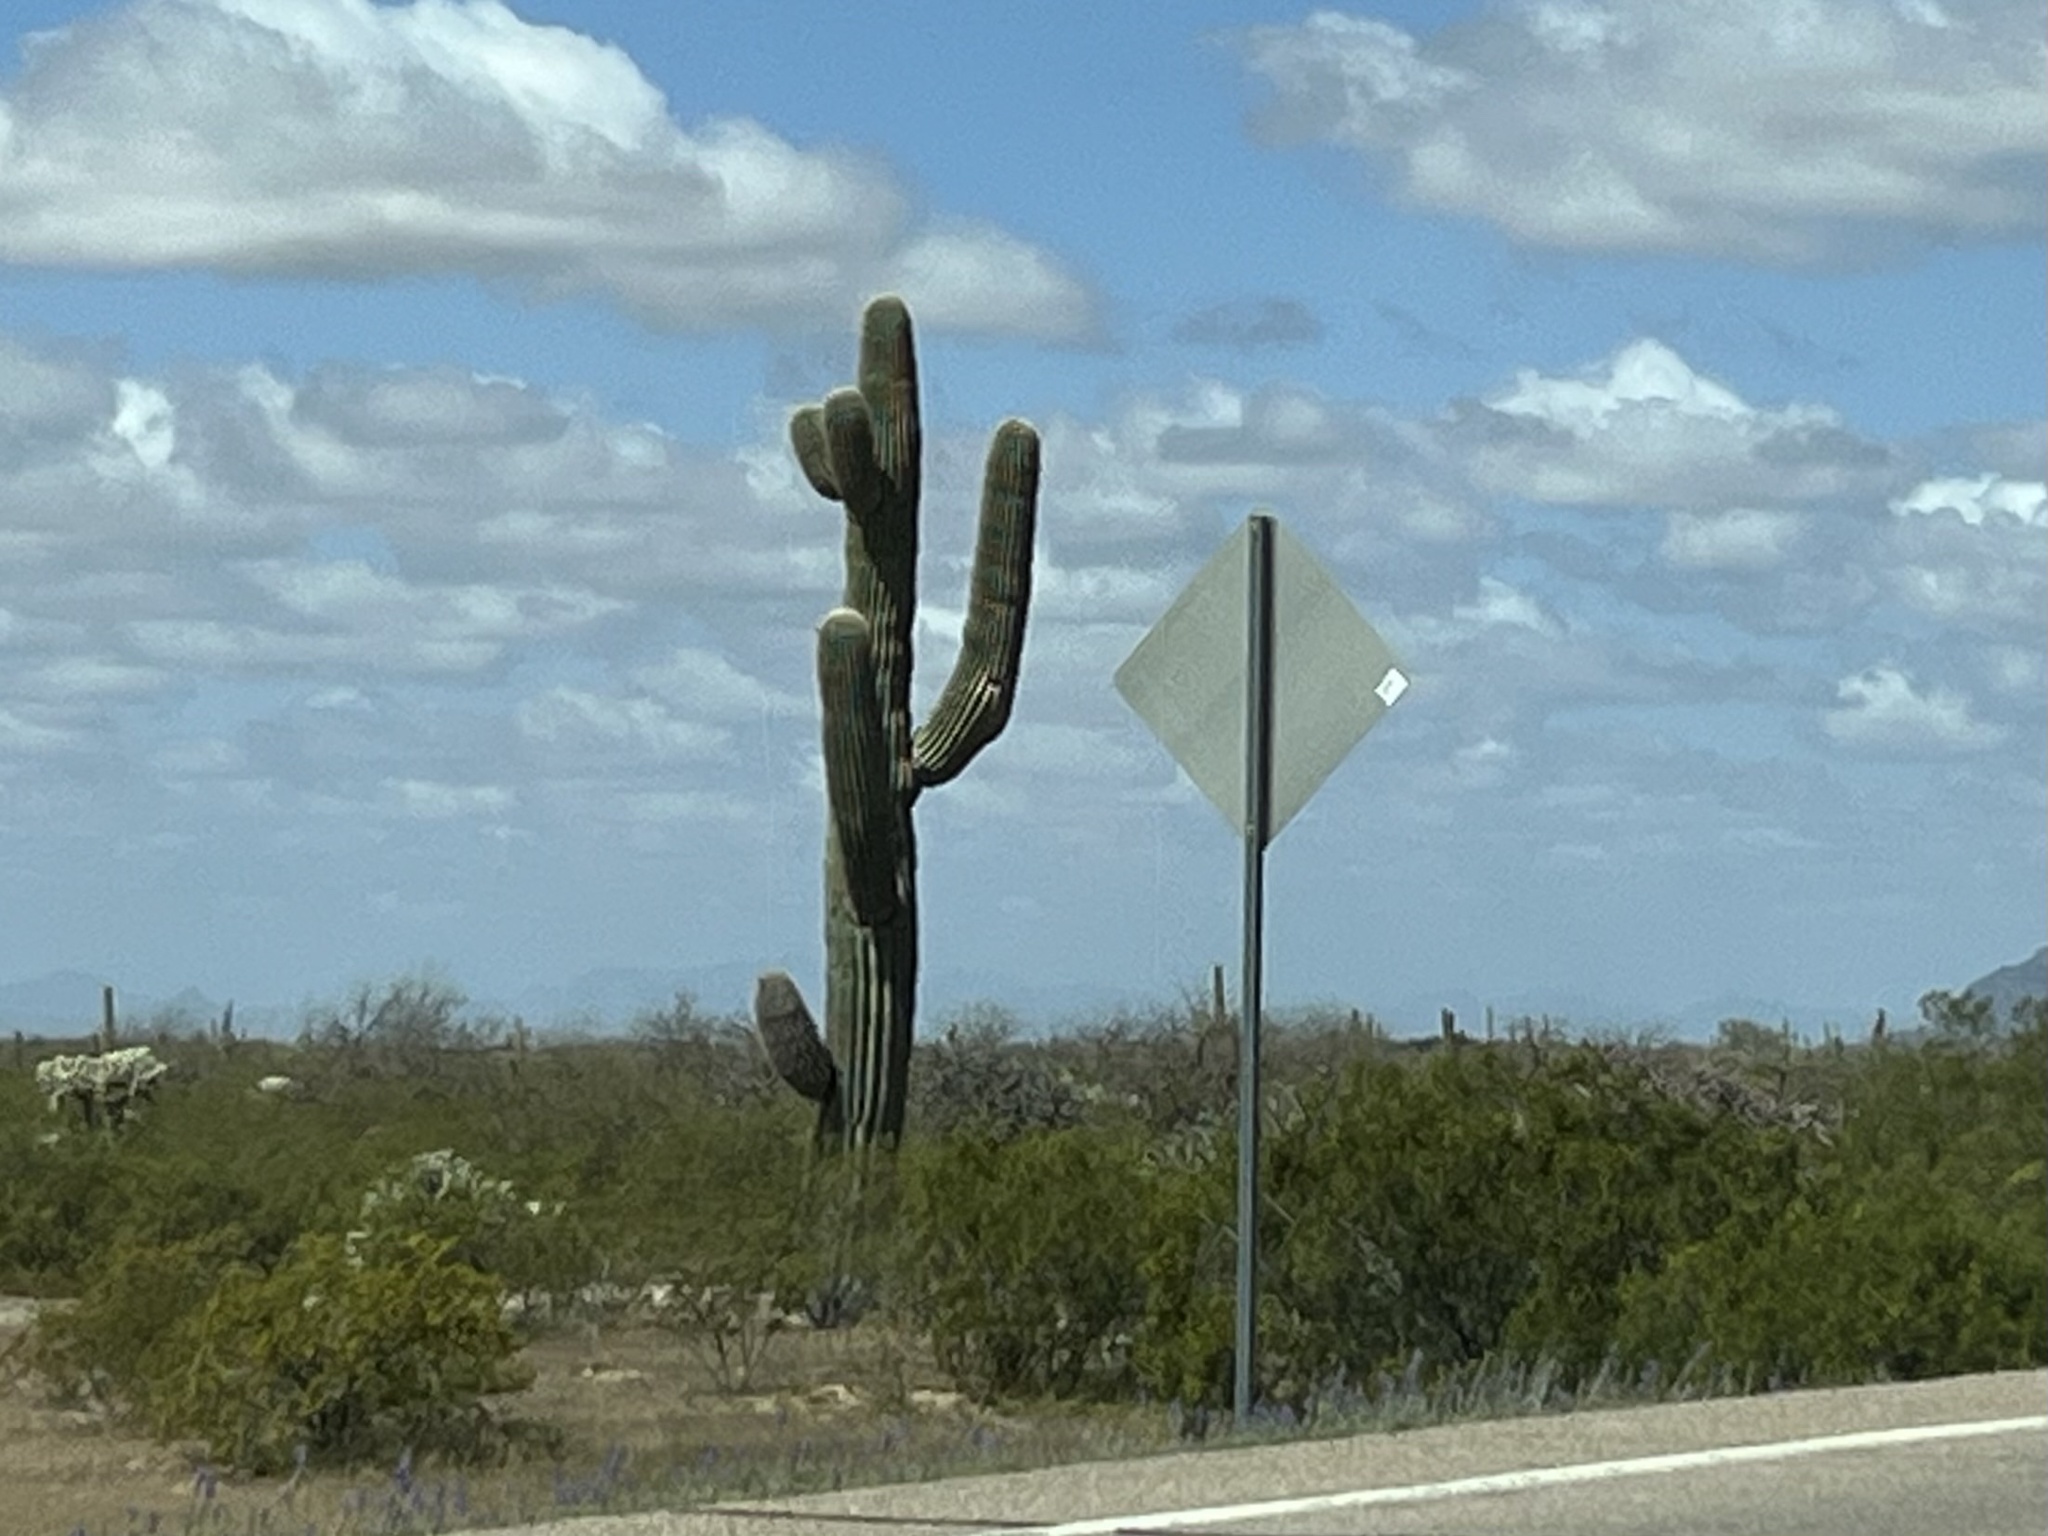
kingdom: Plantae
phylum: Tracheophyta
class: Magnoliopsida
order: Caryophyllales
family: Cactaceae
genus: Carnegiea
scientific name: Carnegiea gigantea
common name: Saguaro
